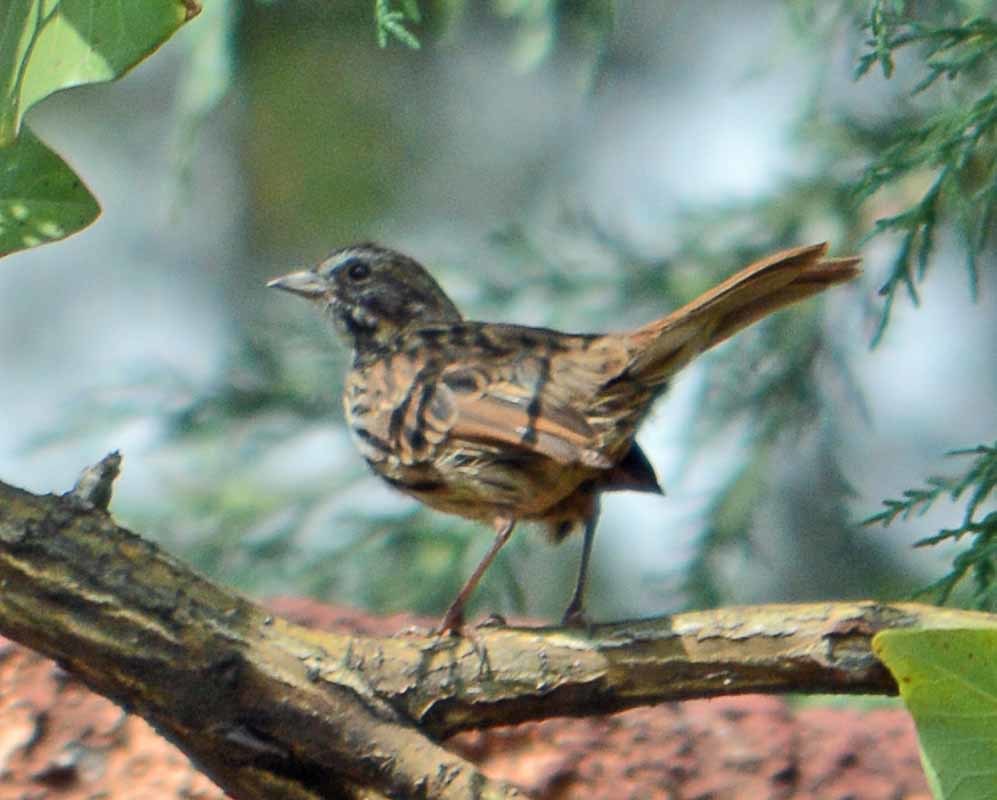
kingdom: Animalia
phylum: Chordata
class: Aves
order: Passeriformes
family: Passerellidae
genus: Melospiza
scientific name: Melospiza melodia
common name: Song sparrow
